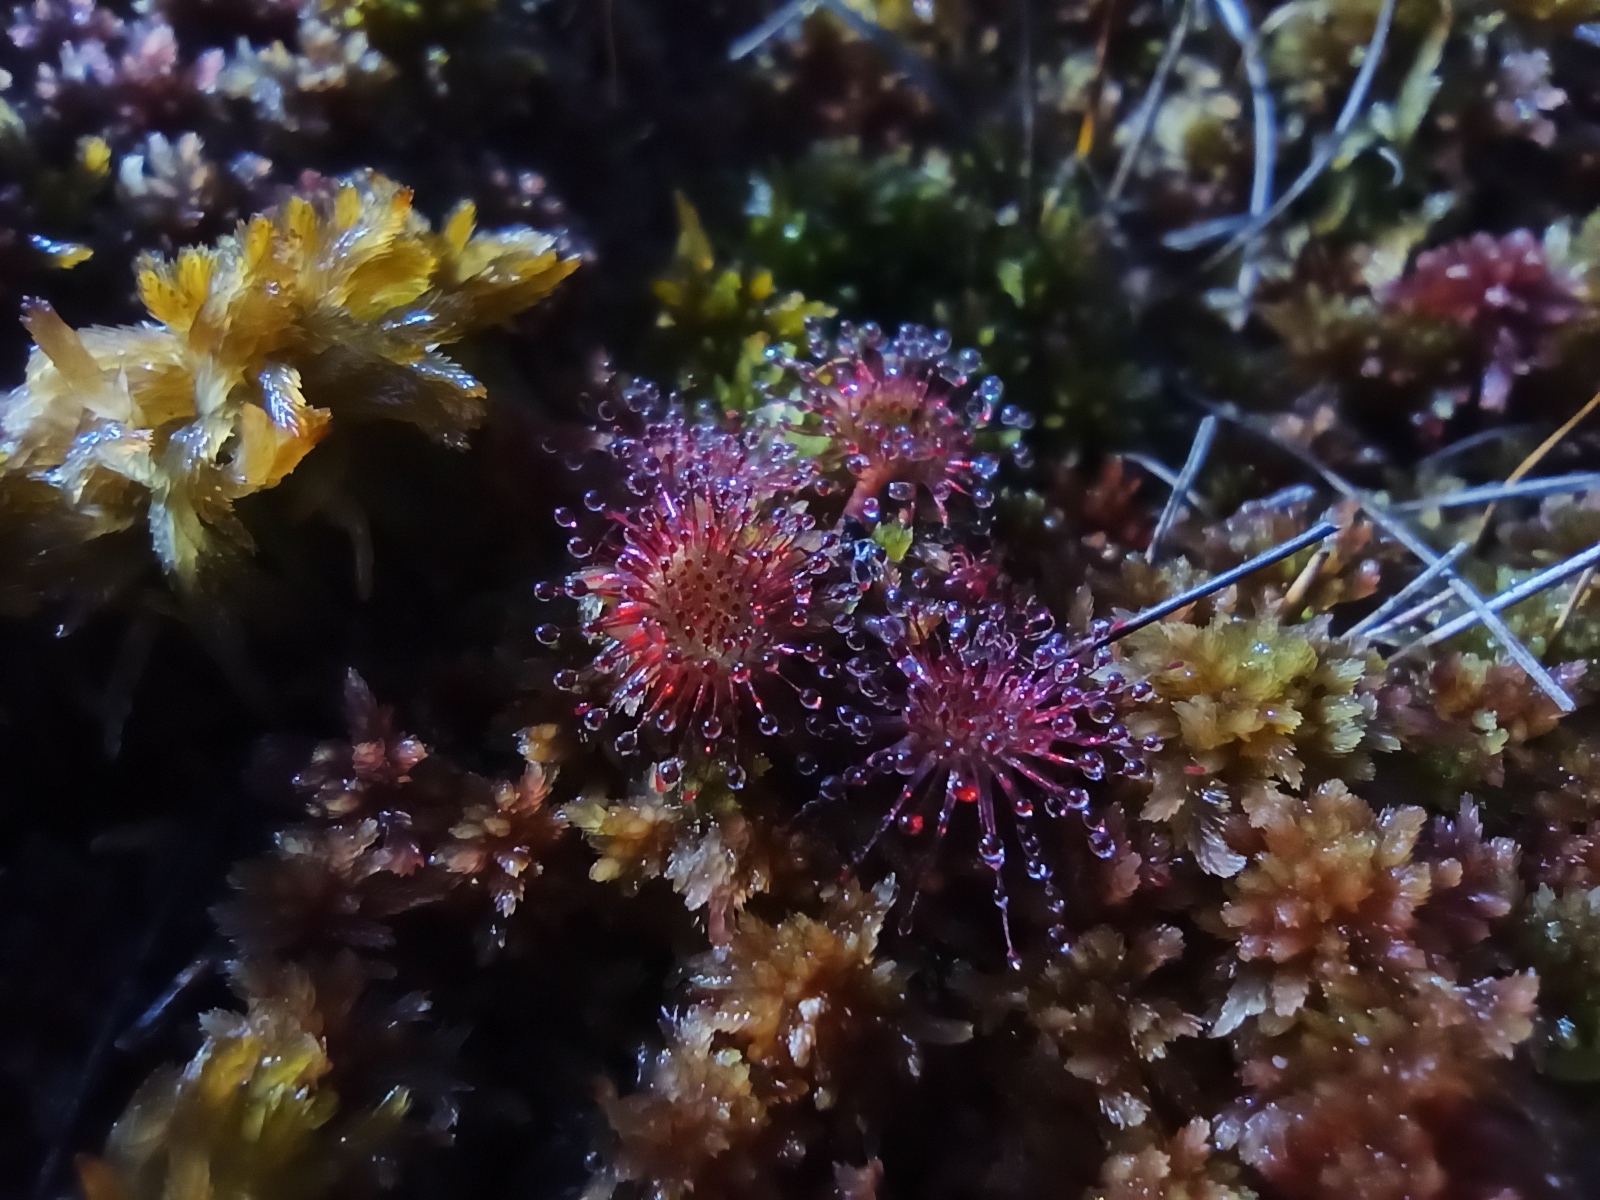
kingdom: Plantae
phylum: Tracheophyta
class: Magnoliopsida
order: Caryophyllales
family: Droseraceae
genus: Drosera
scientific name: Drosera rotundifolia
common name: Round-leaved sundew
